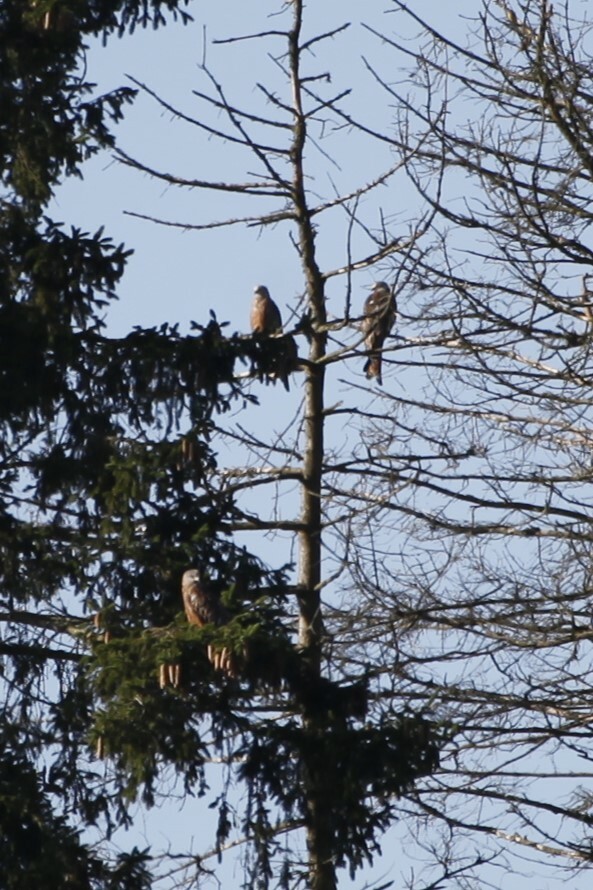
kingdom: Animalia
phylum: Chordata
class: Aves
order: Accipitriformes
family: Accipitridae
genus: Milvus
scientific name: Milvus milvus
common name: Red kite
